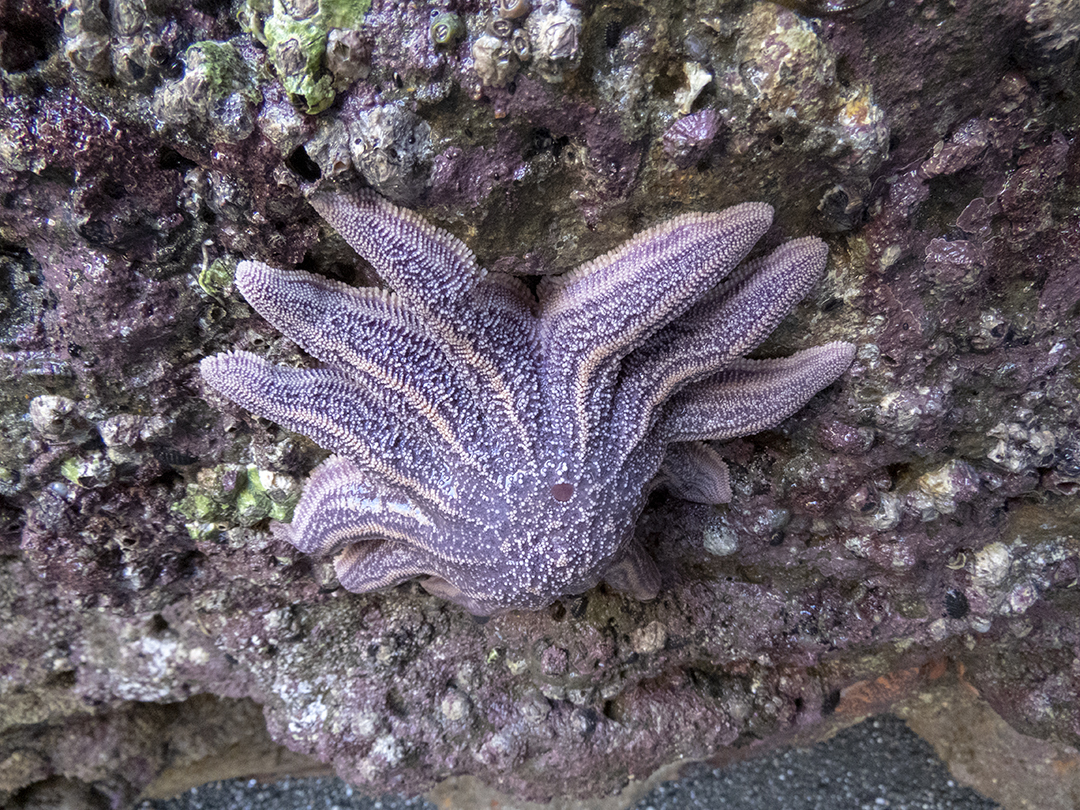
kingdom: Animalia
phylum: Echinodermata
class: Asteroidea
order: Forcipulatida
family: Stichasteridae
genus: Stichaster
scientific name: Stichaster australis
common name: Reef starfish
